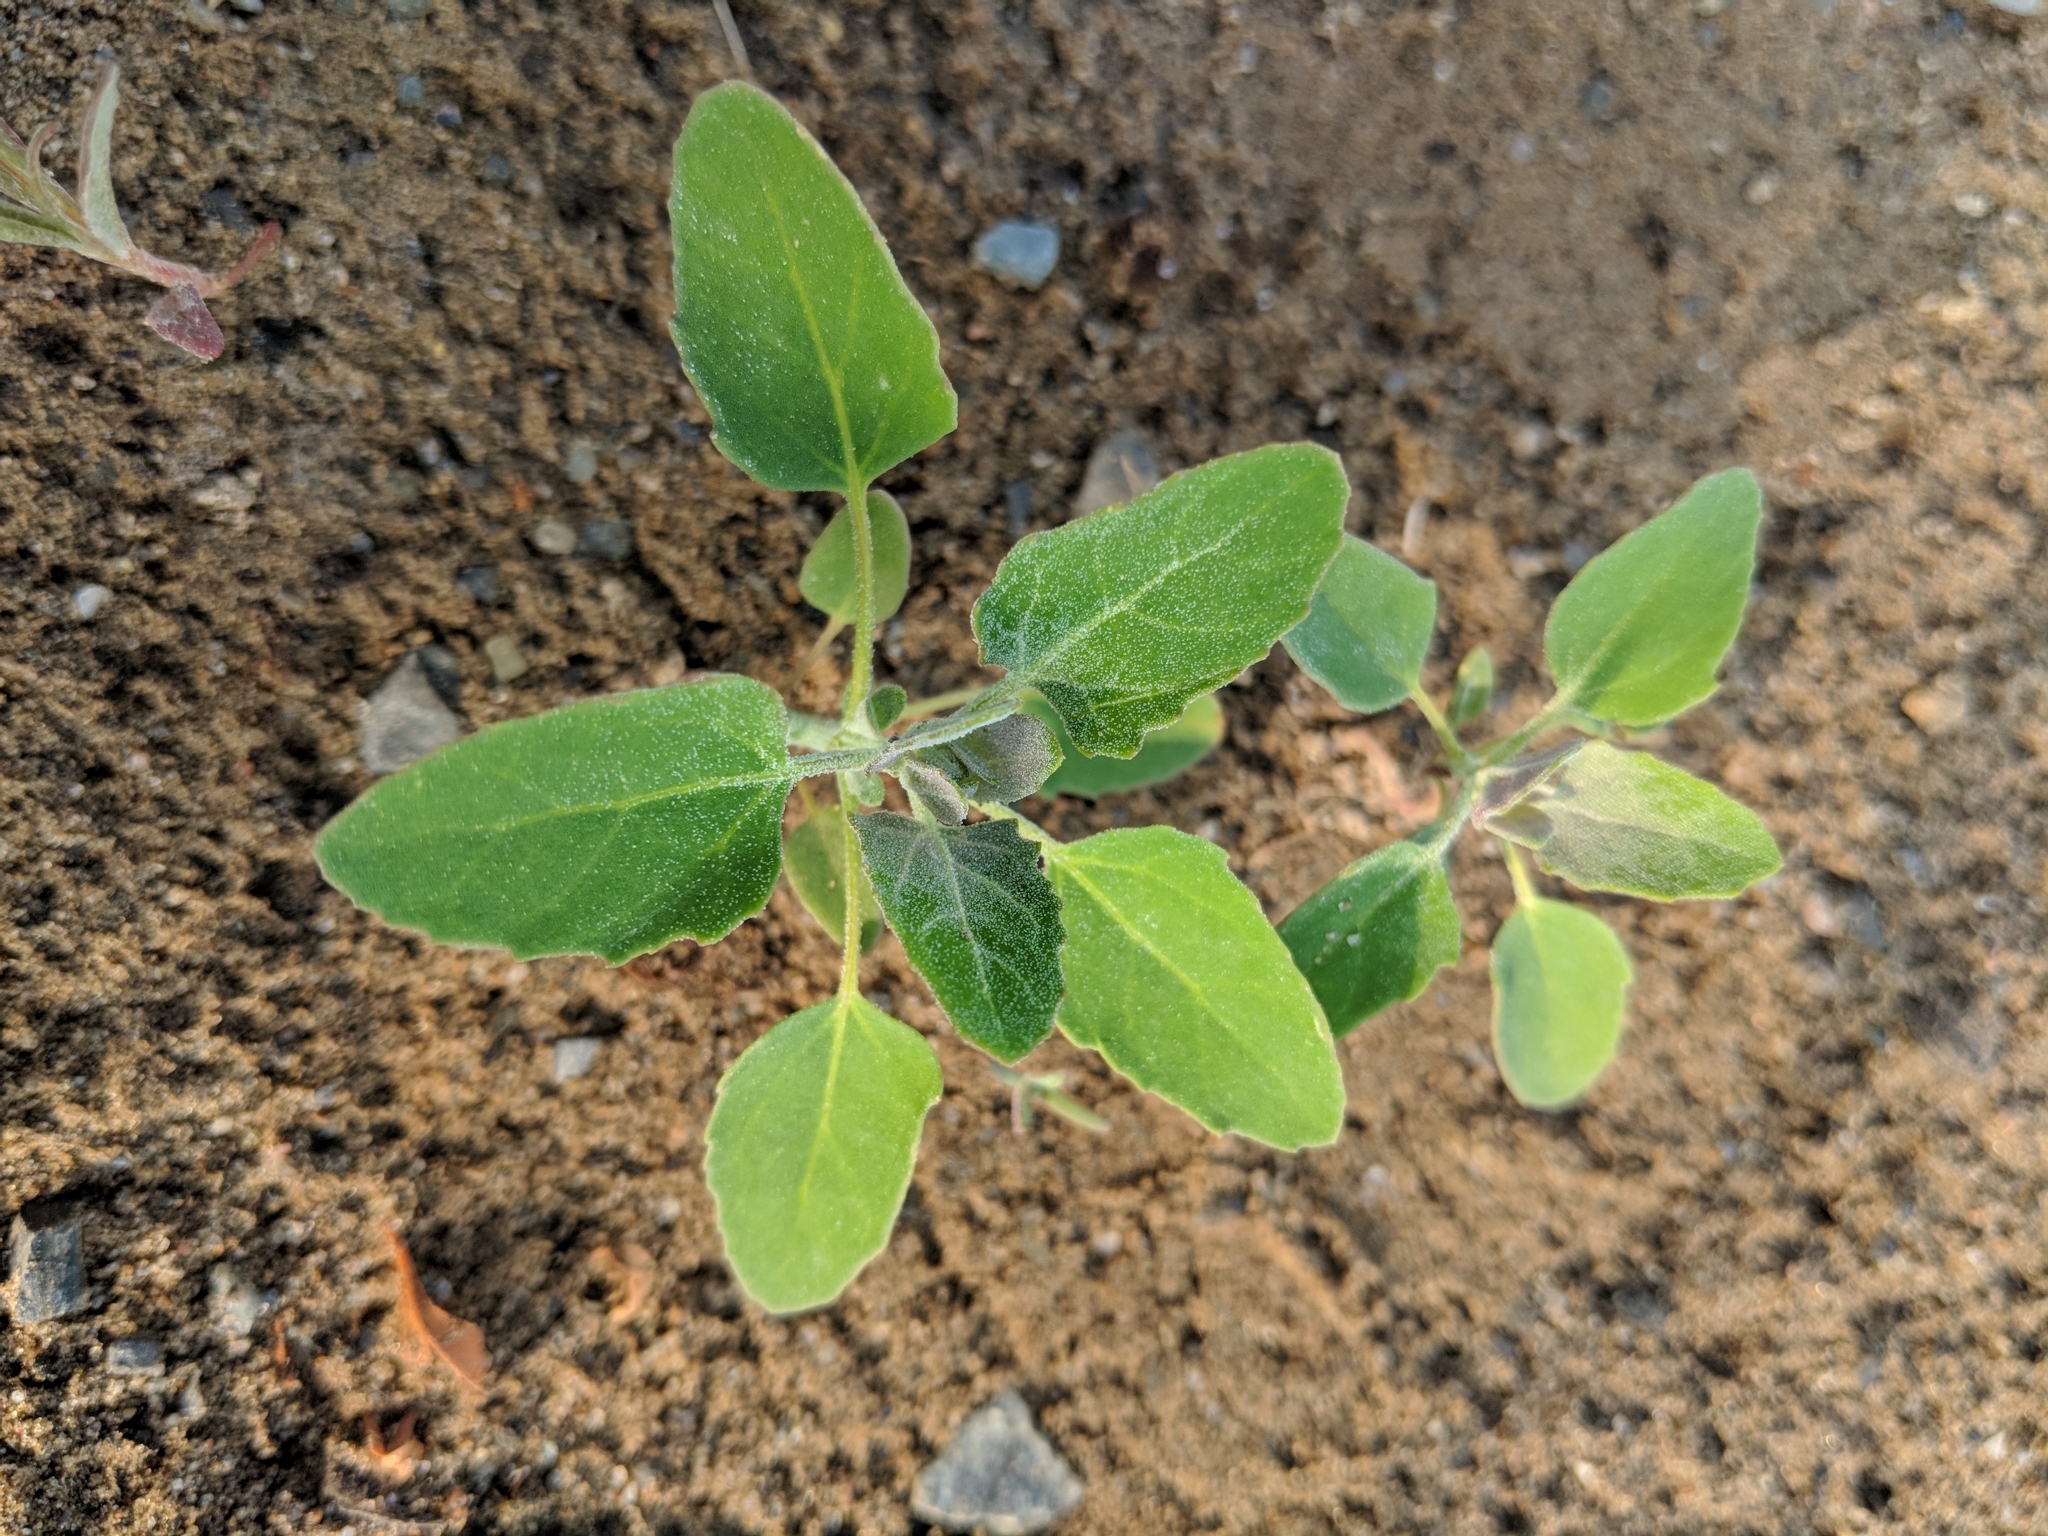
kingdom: Plantae
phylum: Tracheophyta
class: Magnoliopsida
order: Caryophyllales
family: Amaranthaceae
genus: Chenopodium
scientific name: Chenopodium album
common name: Fat-hen
